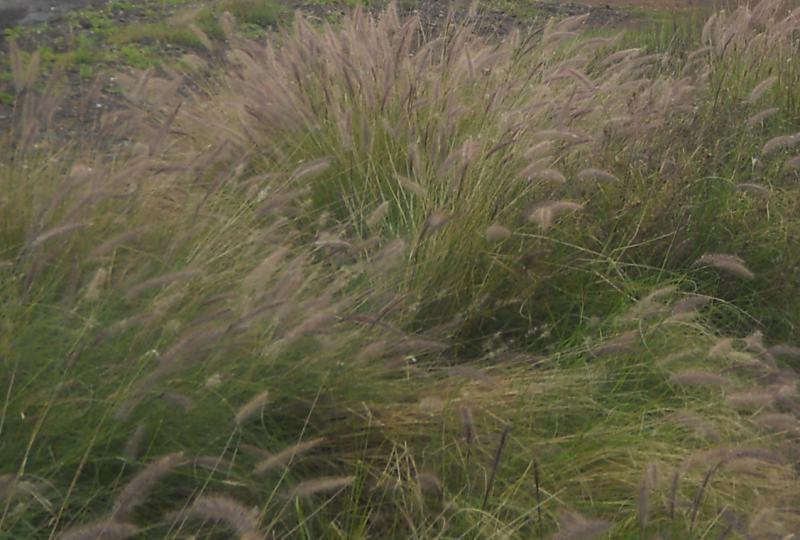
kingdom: Plantae
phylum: Tracheophyta
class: Liliopsida
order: Poales
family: Poaceae
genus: Cenchrus
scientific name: Cenchrus setaceus
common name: Crimson fountaingrass
